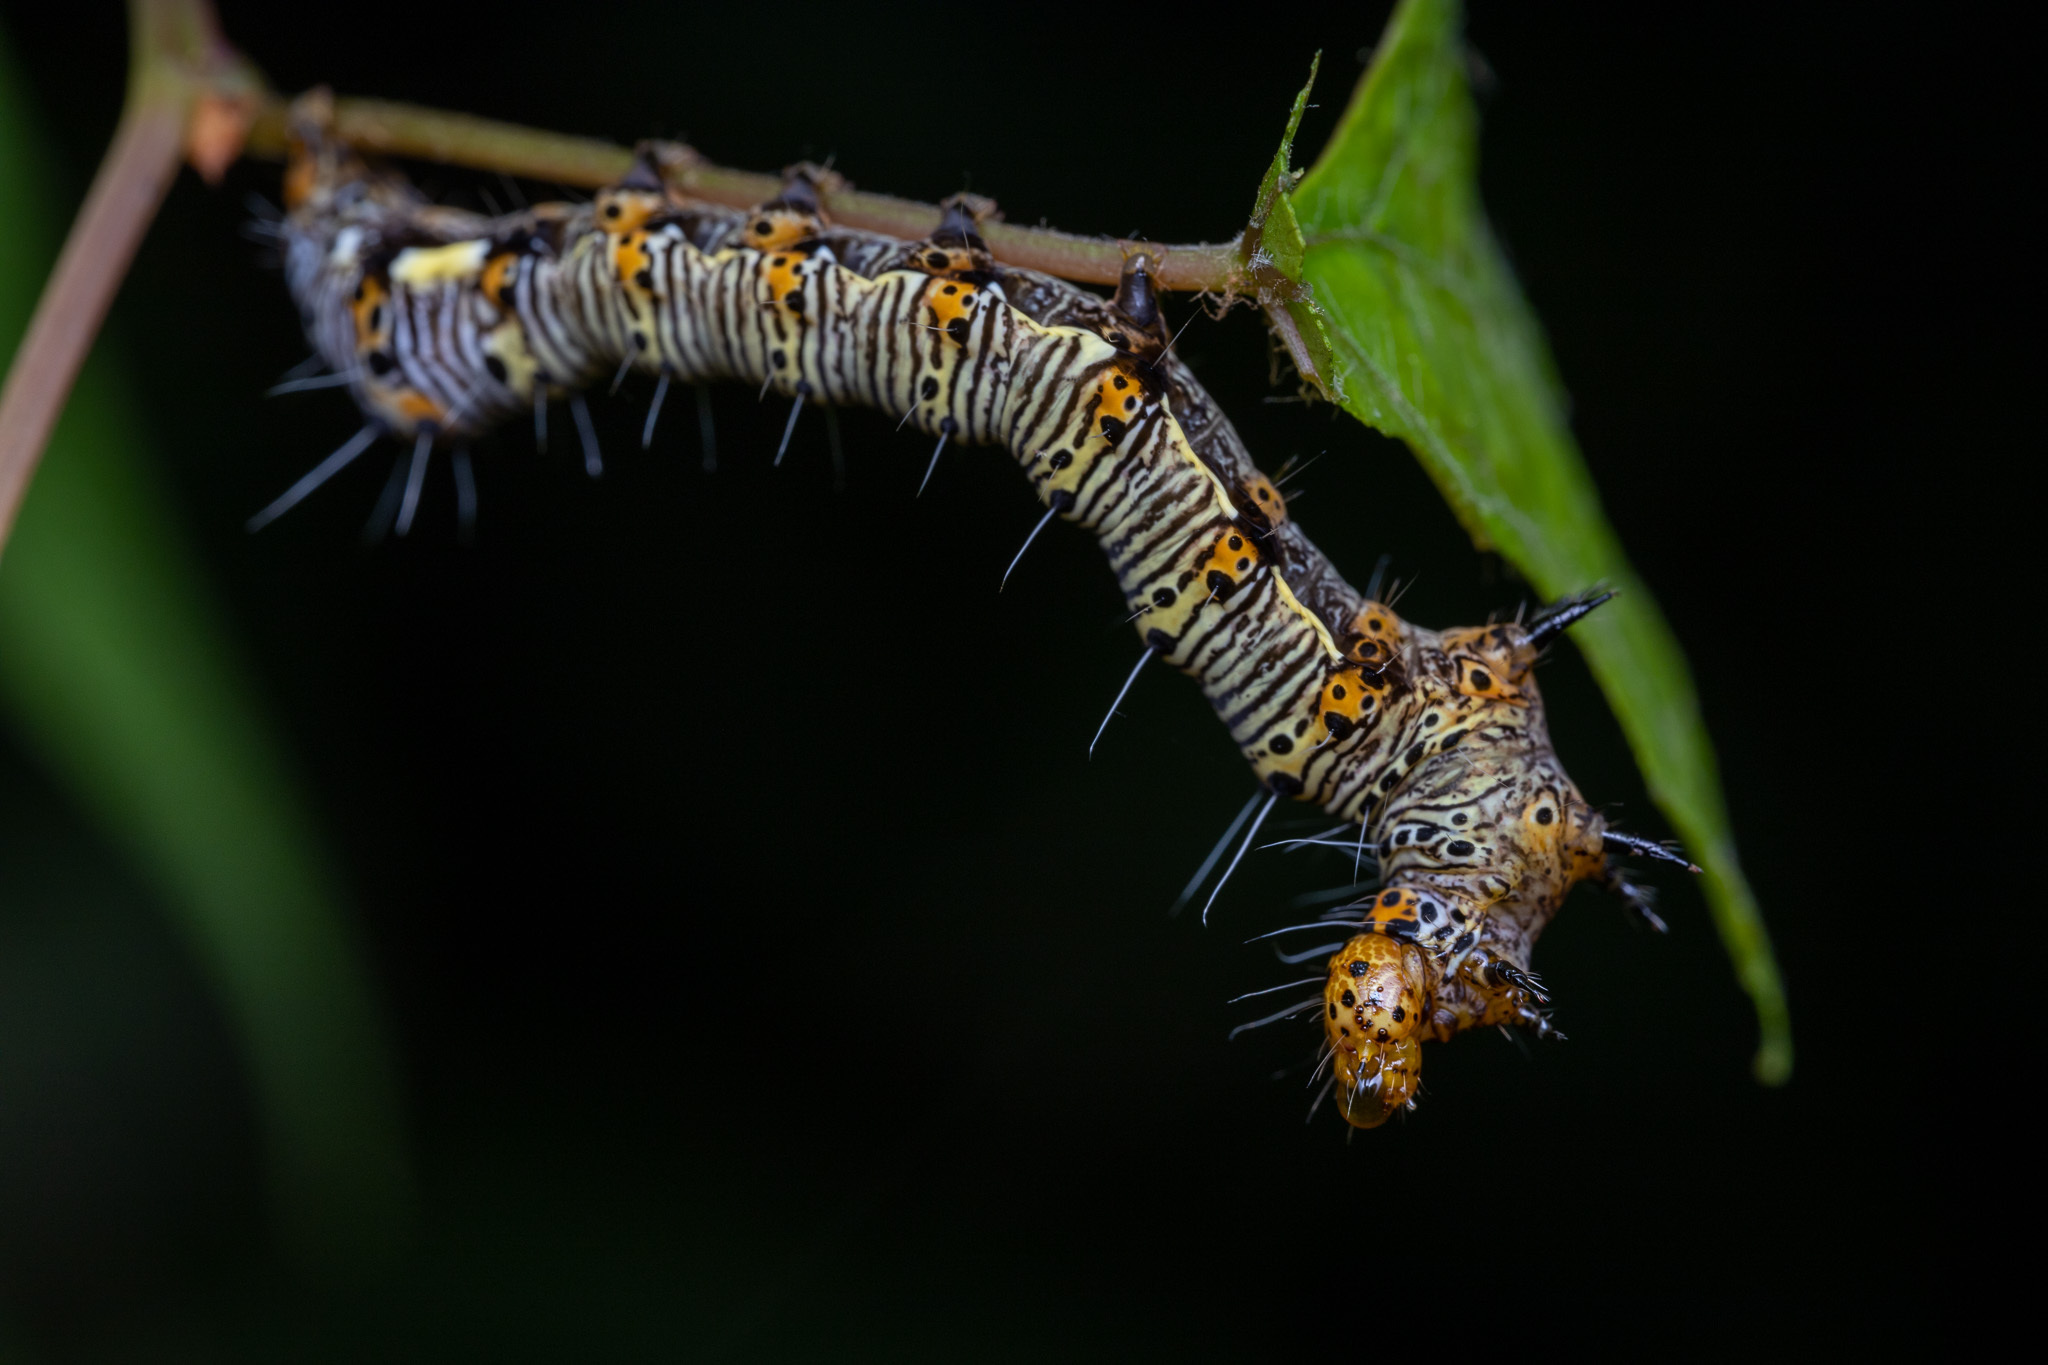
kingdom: Animalia
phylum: Arthropoda
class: Insecta
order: Lepidoptera
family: Noctuidae
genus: Alypia
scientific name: Alypia octomaculata
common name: Eight-spotted forester
